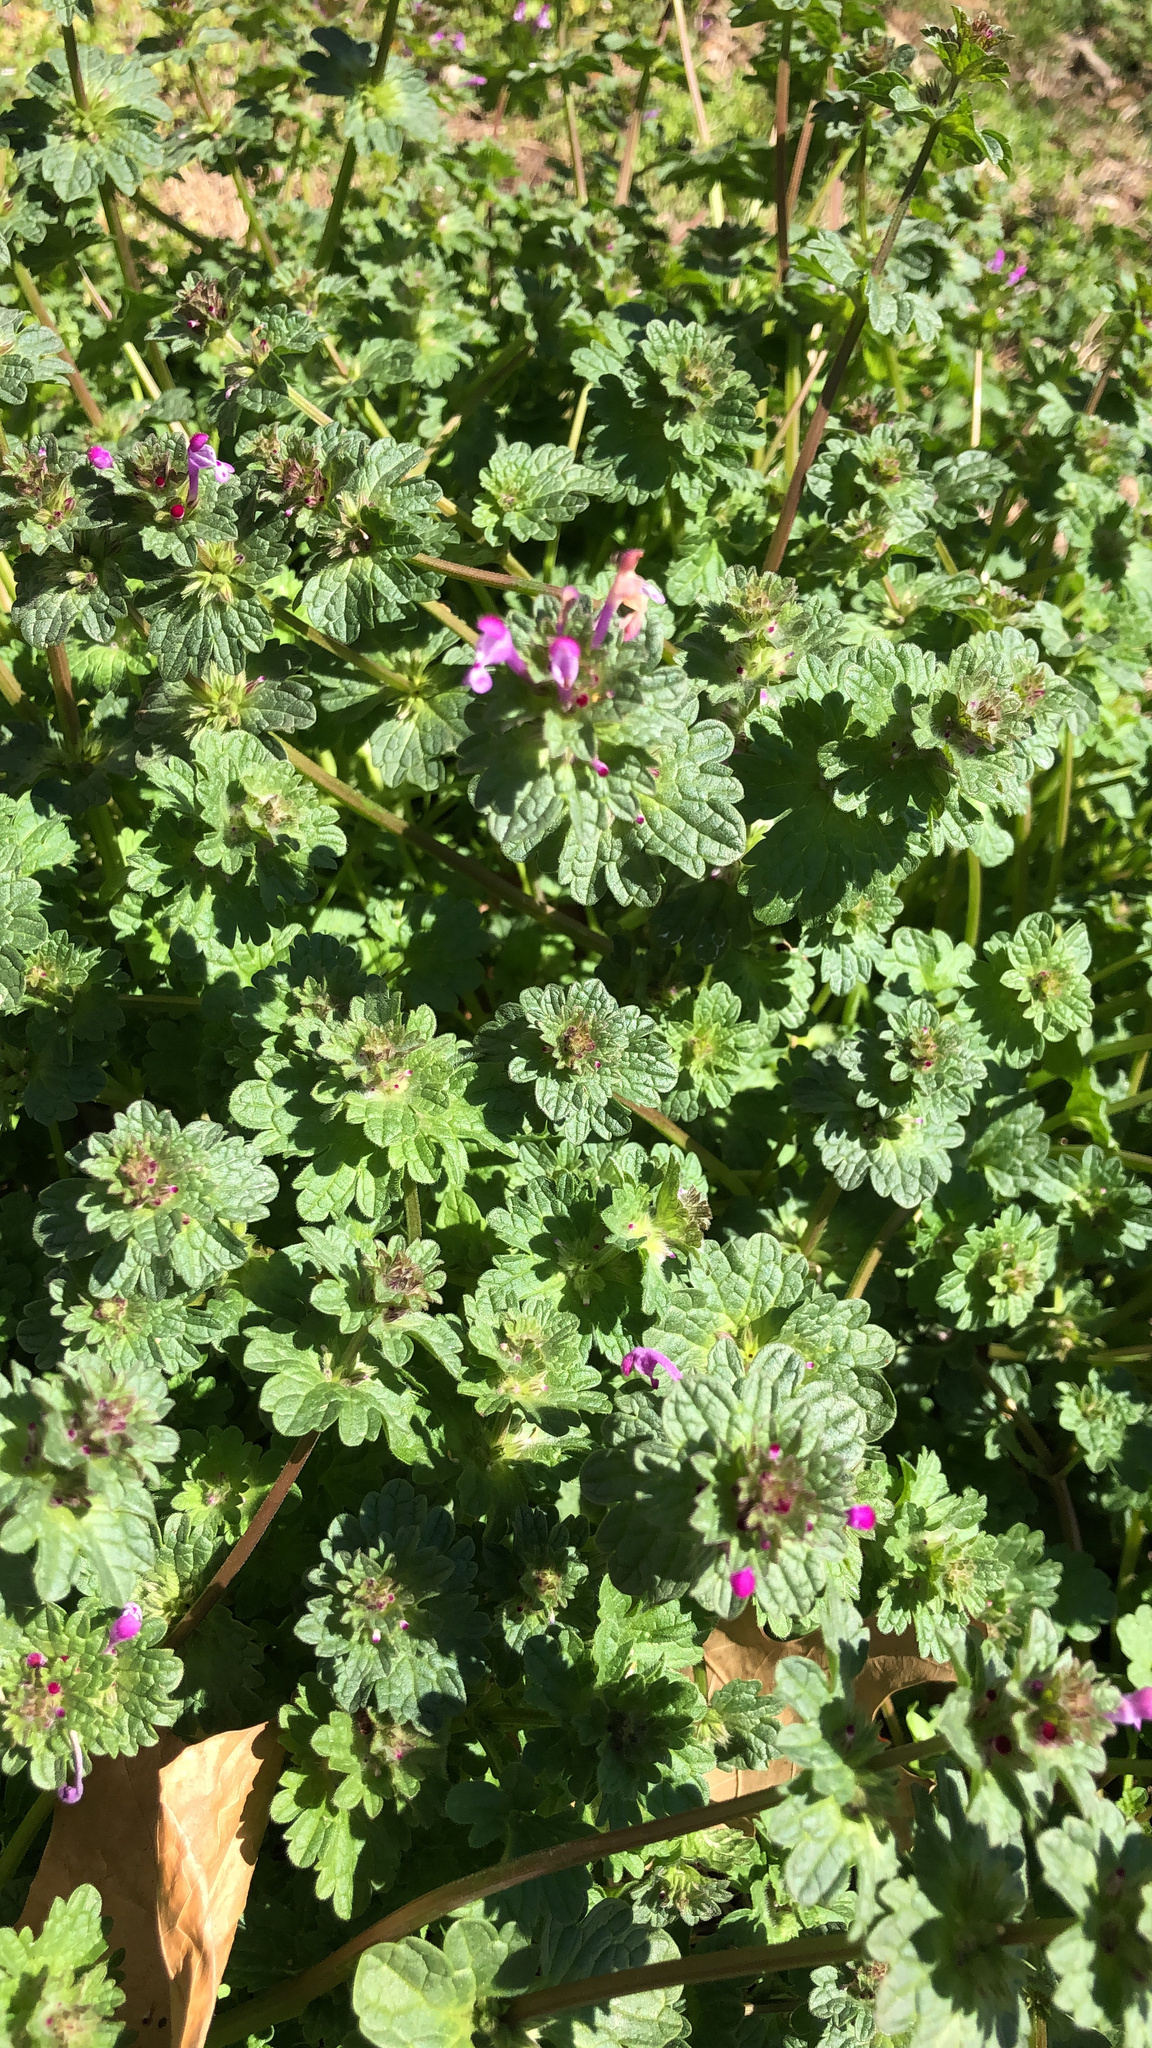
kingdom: Plantae
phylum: Tracheophyta
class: Magnoliopsida
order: Lamiales
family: Lamiaceae
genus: Lamium
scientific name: Lamium amplexicaule
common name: Henbit dead-nettle
